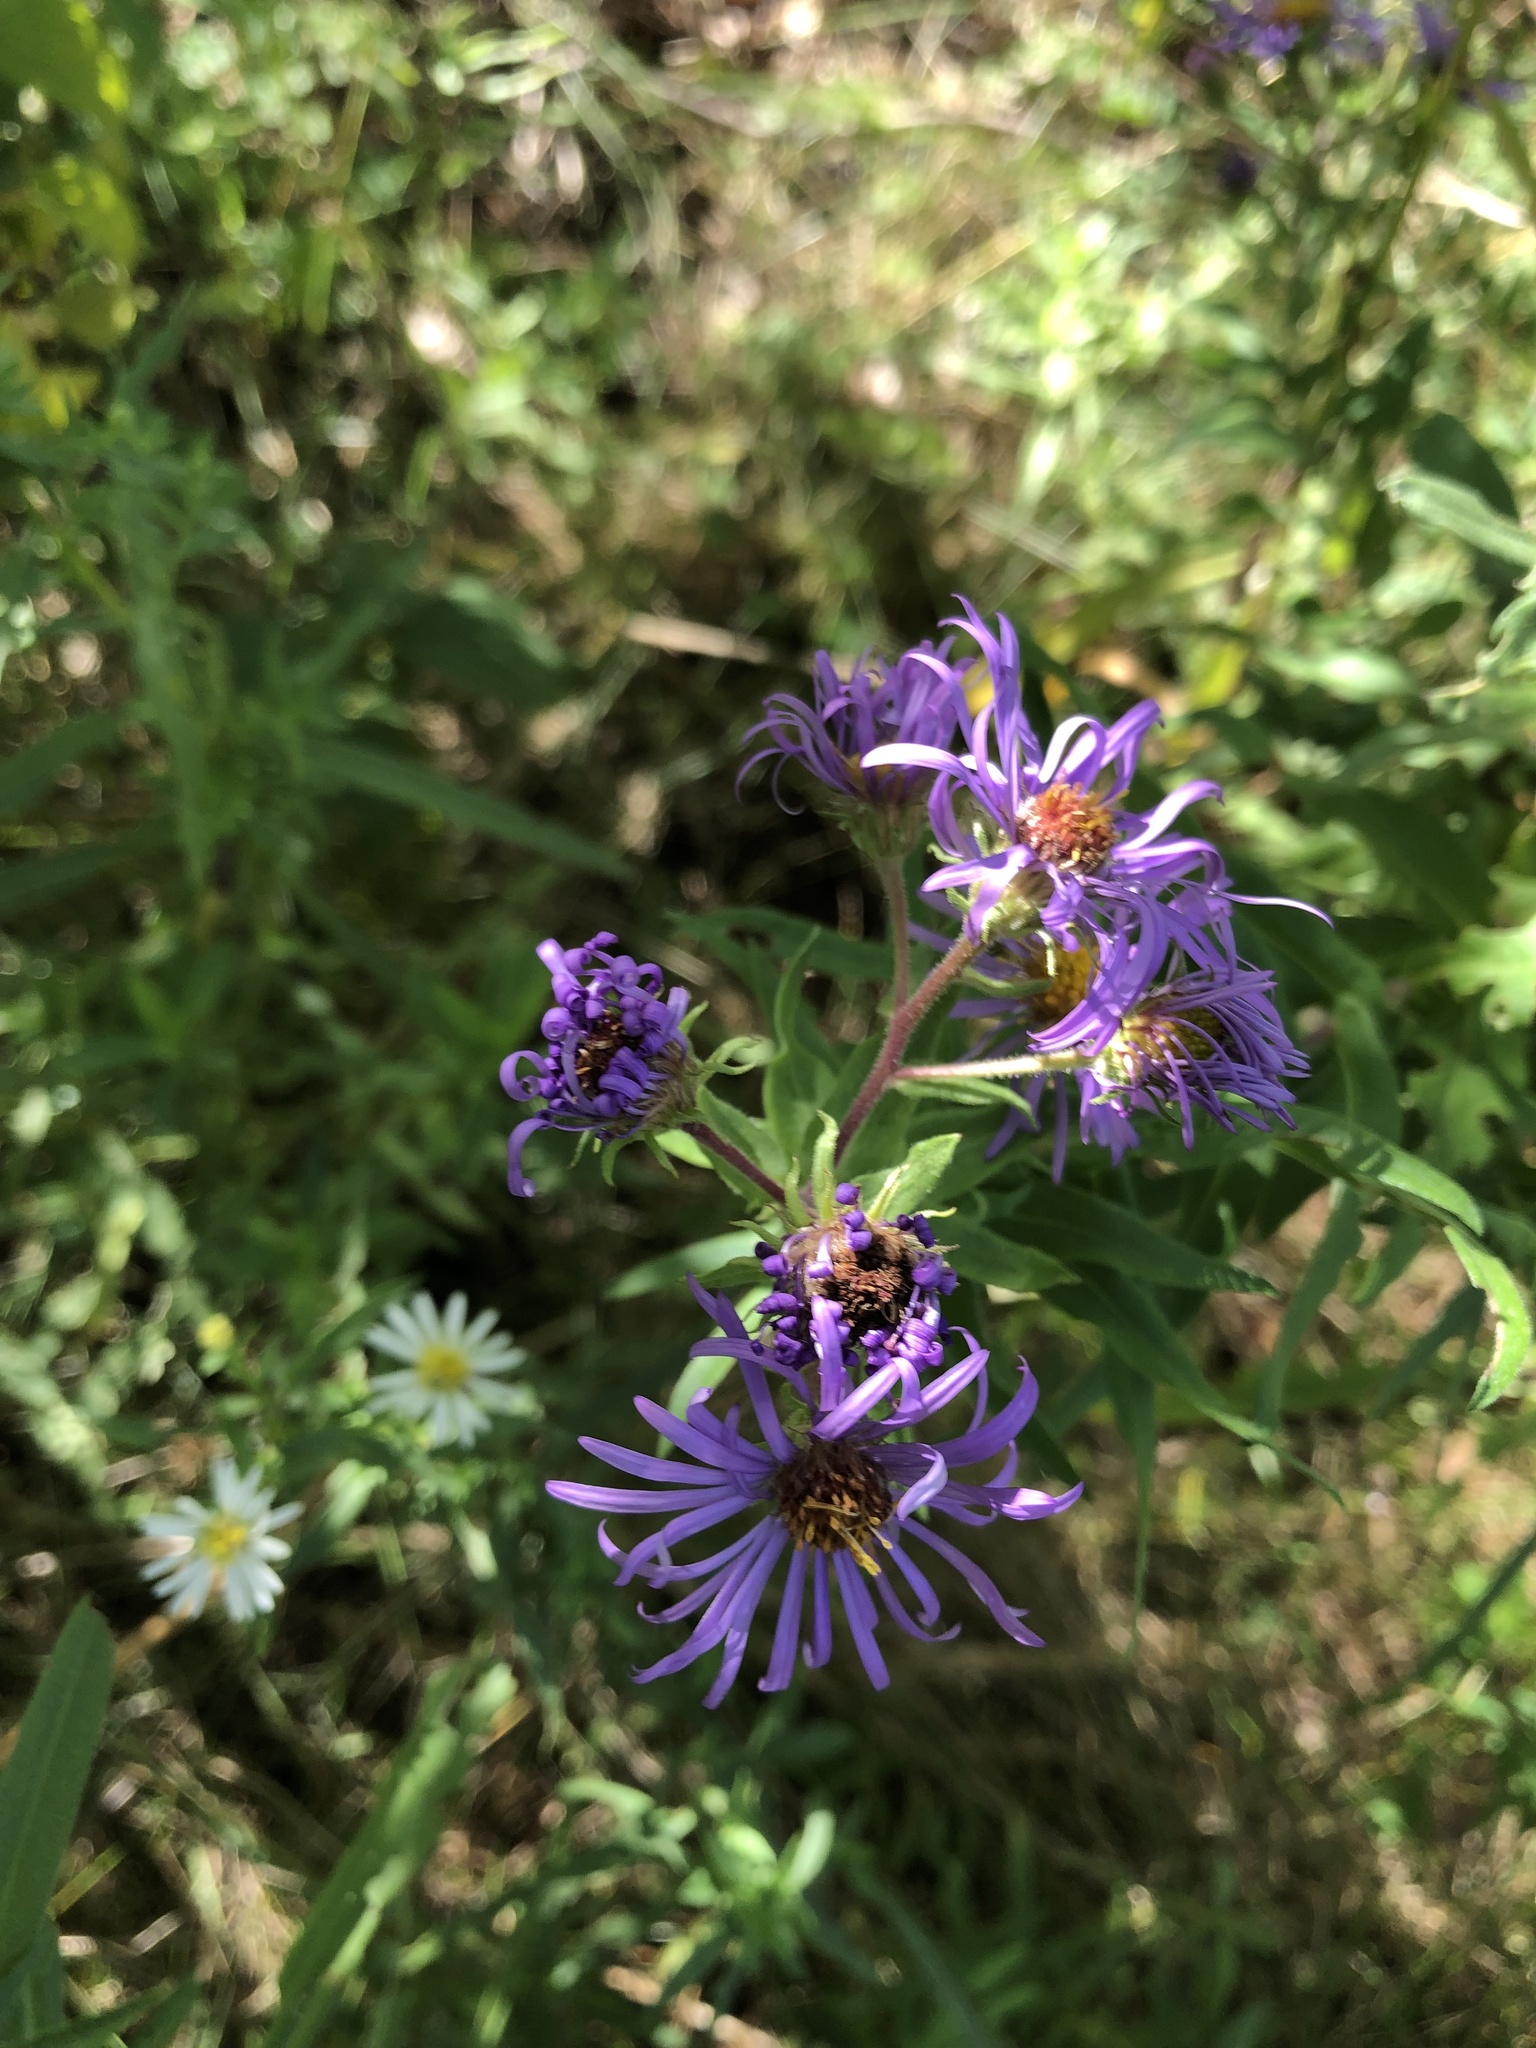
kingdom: Plantae
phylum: Tracheophyta
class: Magnoliopsida
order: Asterales
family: Asteraceae
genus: Symphyotrichum
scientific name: Symphyotrichum novae-angliae
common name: Michaelmas daisy
